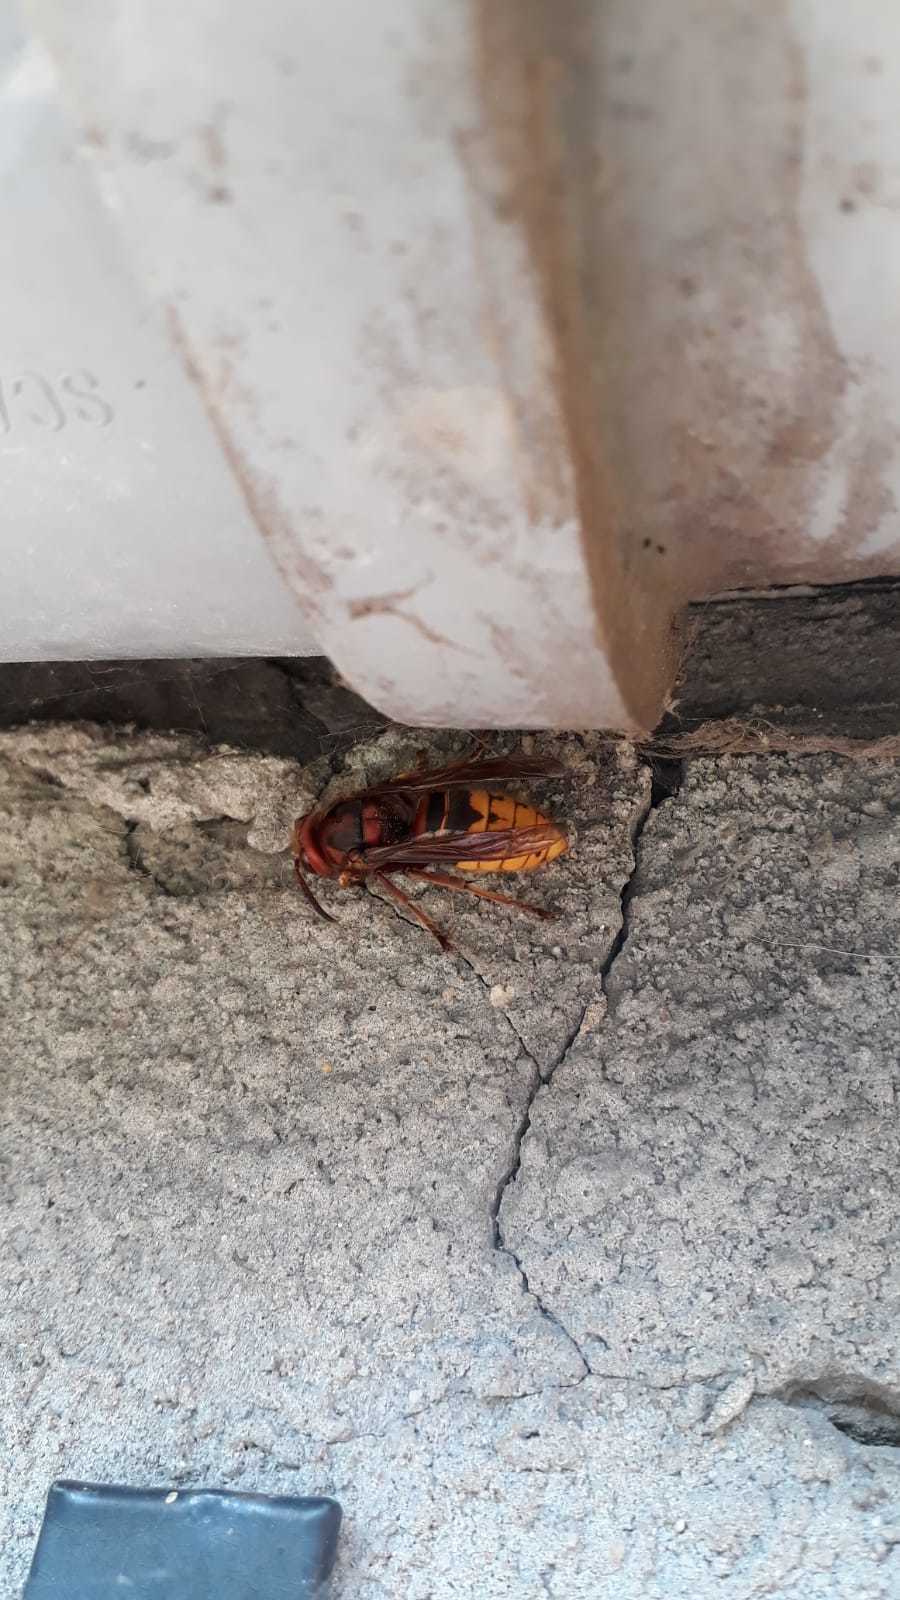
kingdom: Animalia
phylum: Arthropoda
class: Insecta
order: Hymenoptera
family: Vespidae
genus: Vespa
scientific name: Vespa crabro
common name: Hornet
